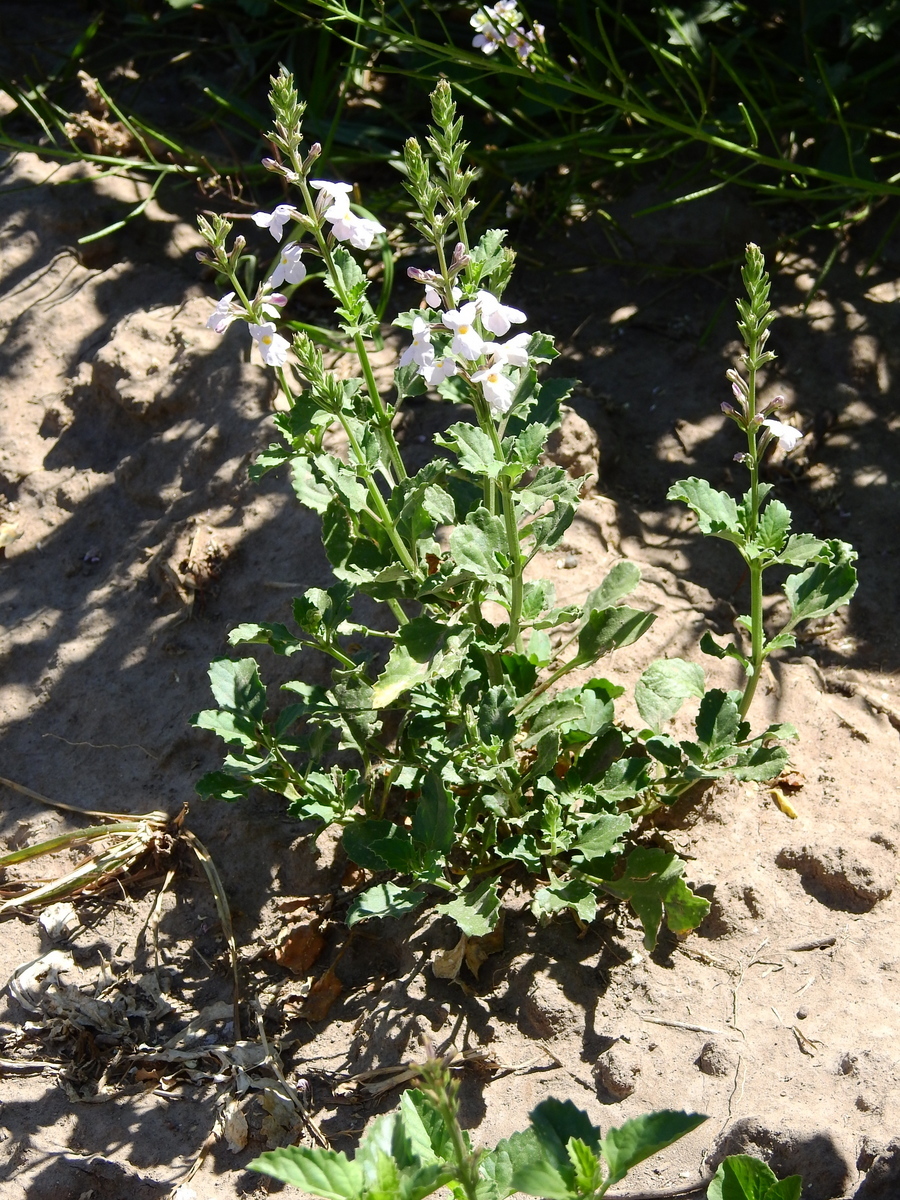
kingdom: Plantae
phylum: Tracheophyta
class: Magnoliopsida
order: Lamiales
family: Verbenaceae
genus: Pitraea
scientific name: Pitraea cuneato-ovata
